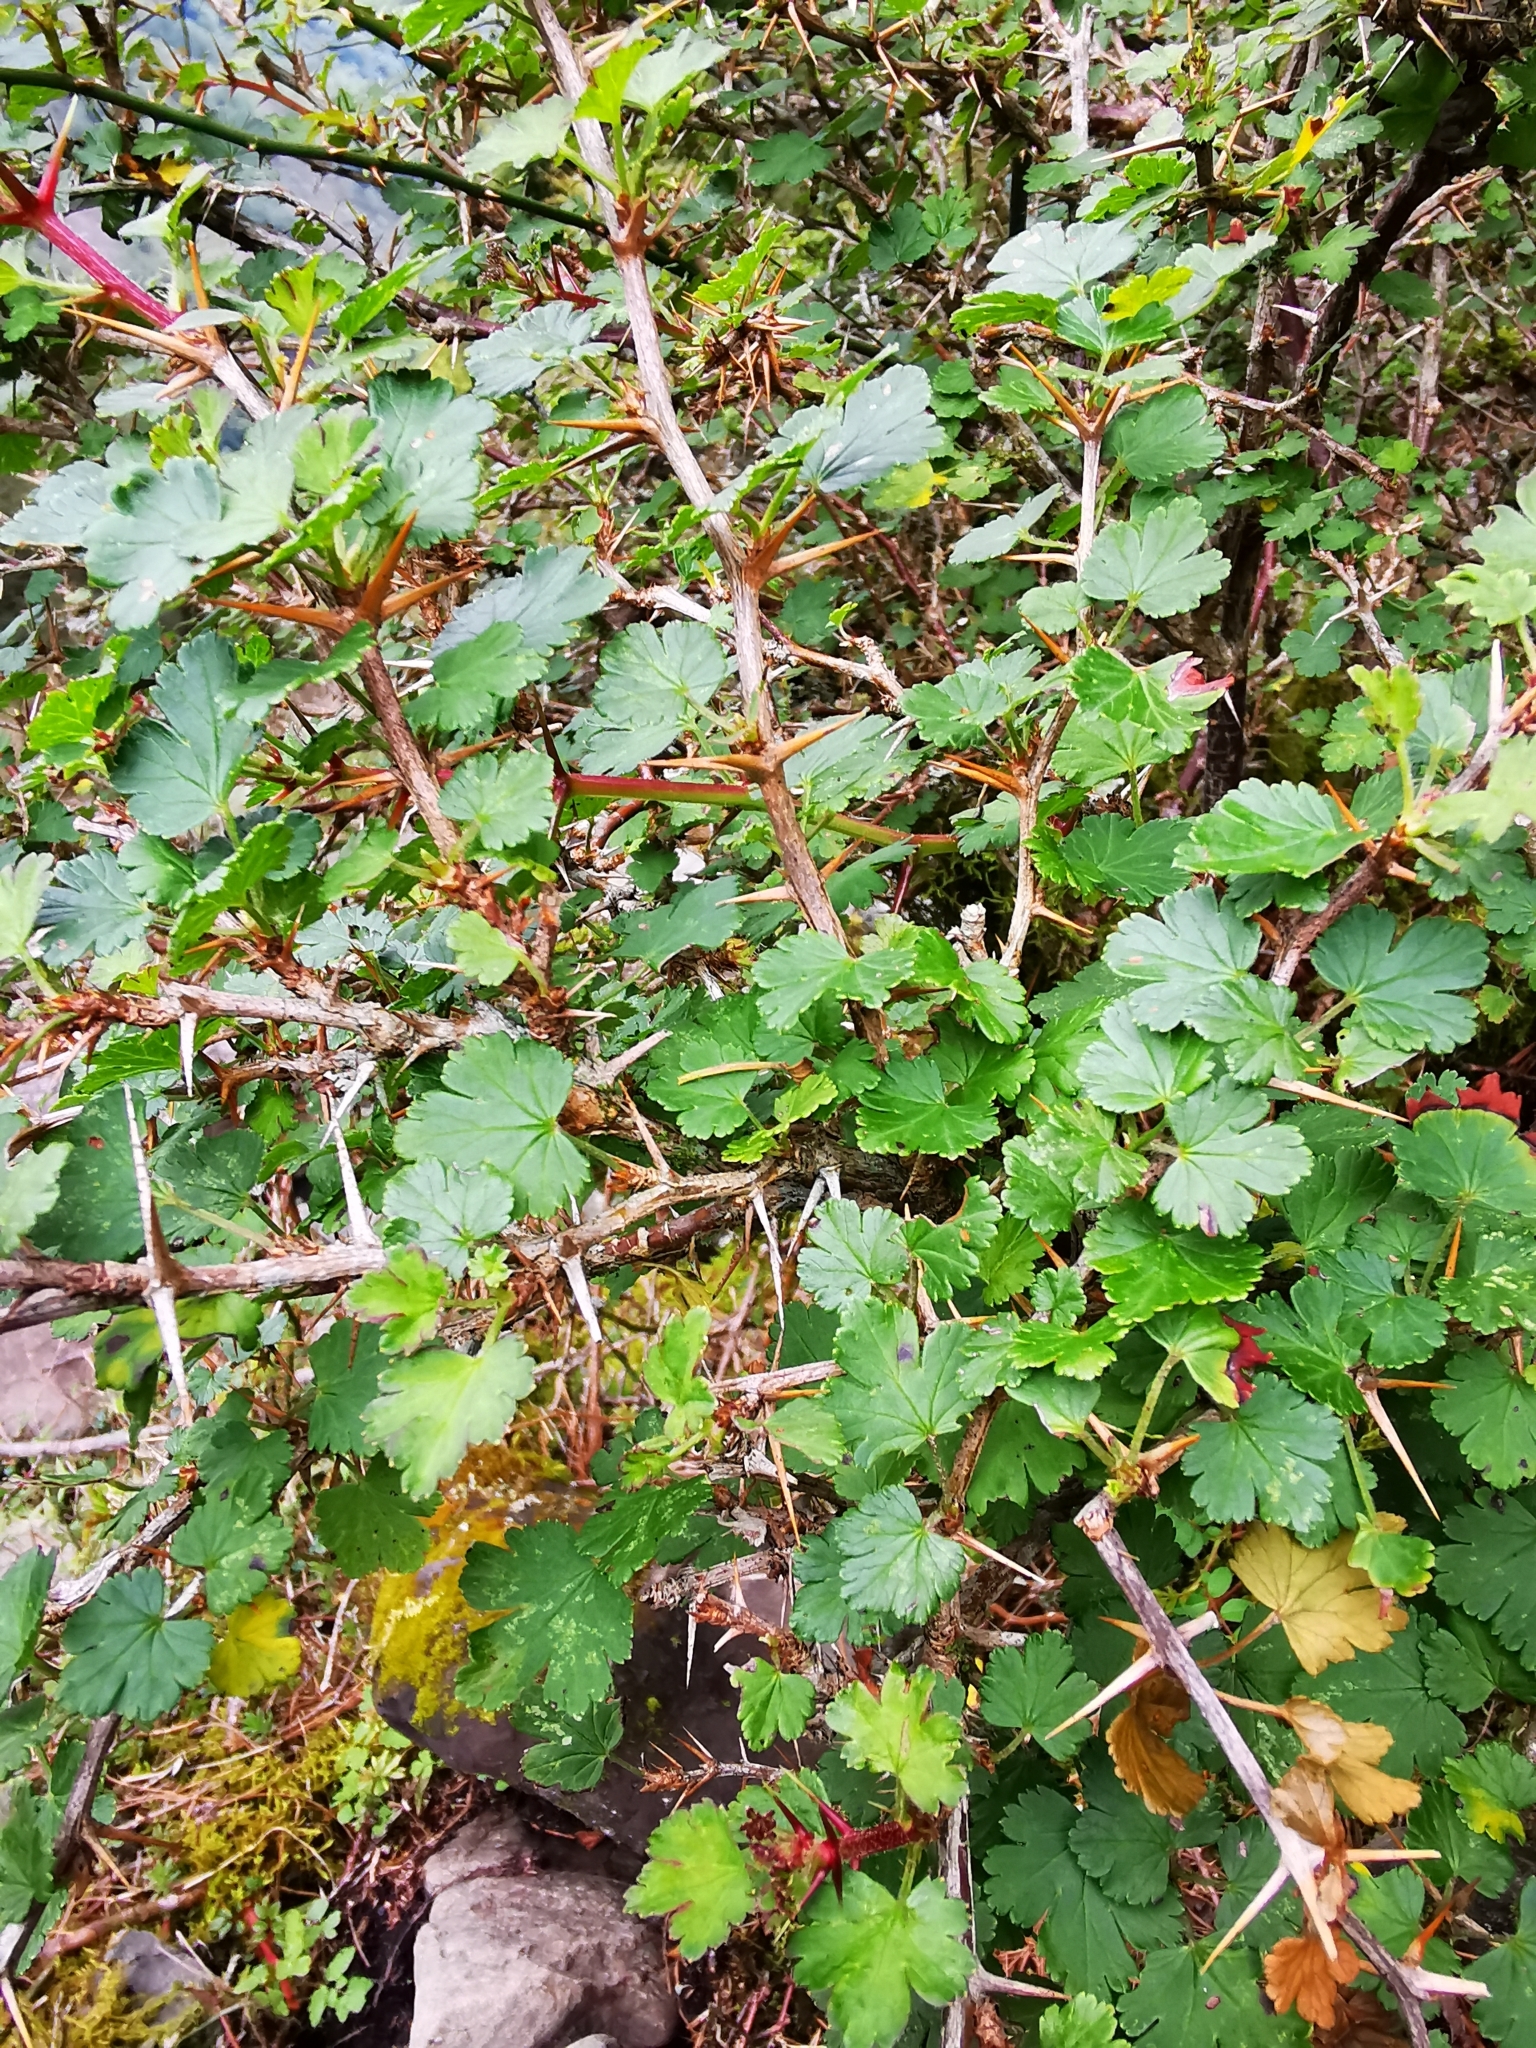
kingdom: Plantae
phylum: Tracheophyta
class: Magnoliopsida
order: Saxifragales
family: Grossulariaceae
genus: Ribes
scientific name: Ribes formosanum
